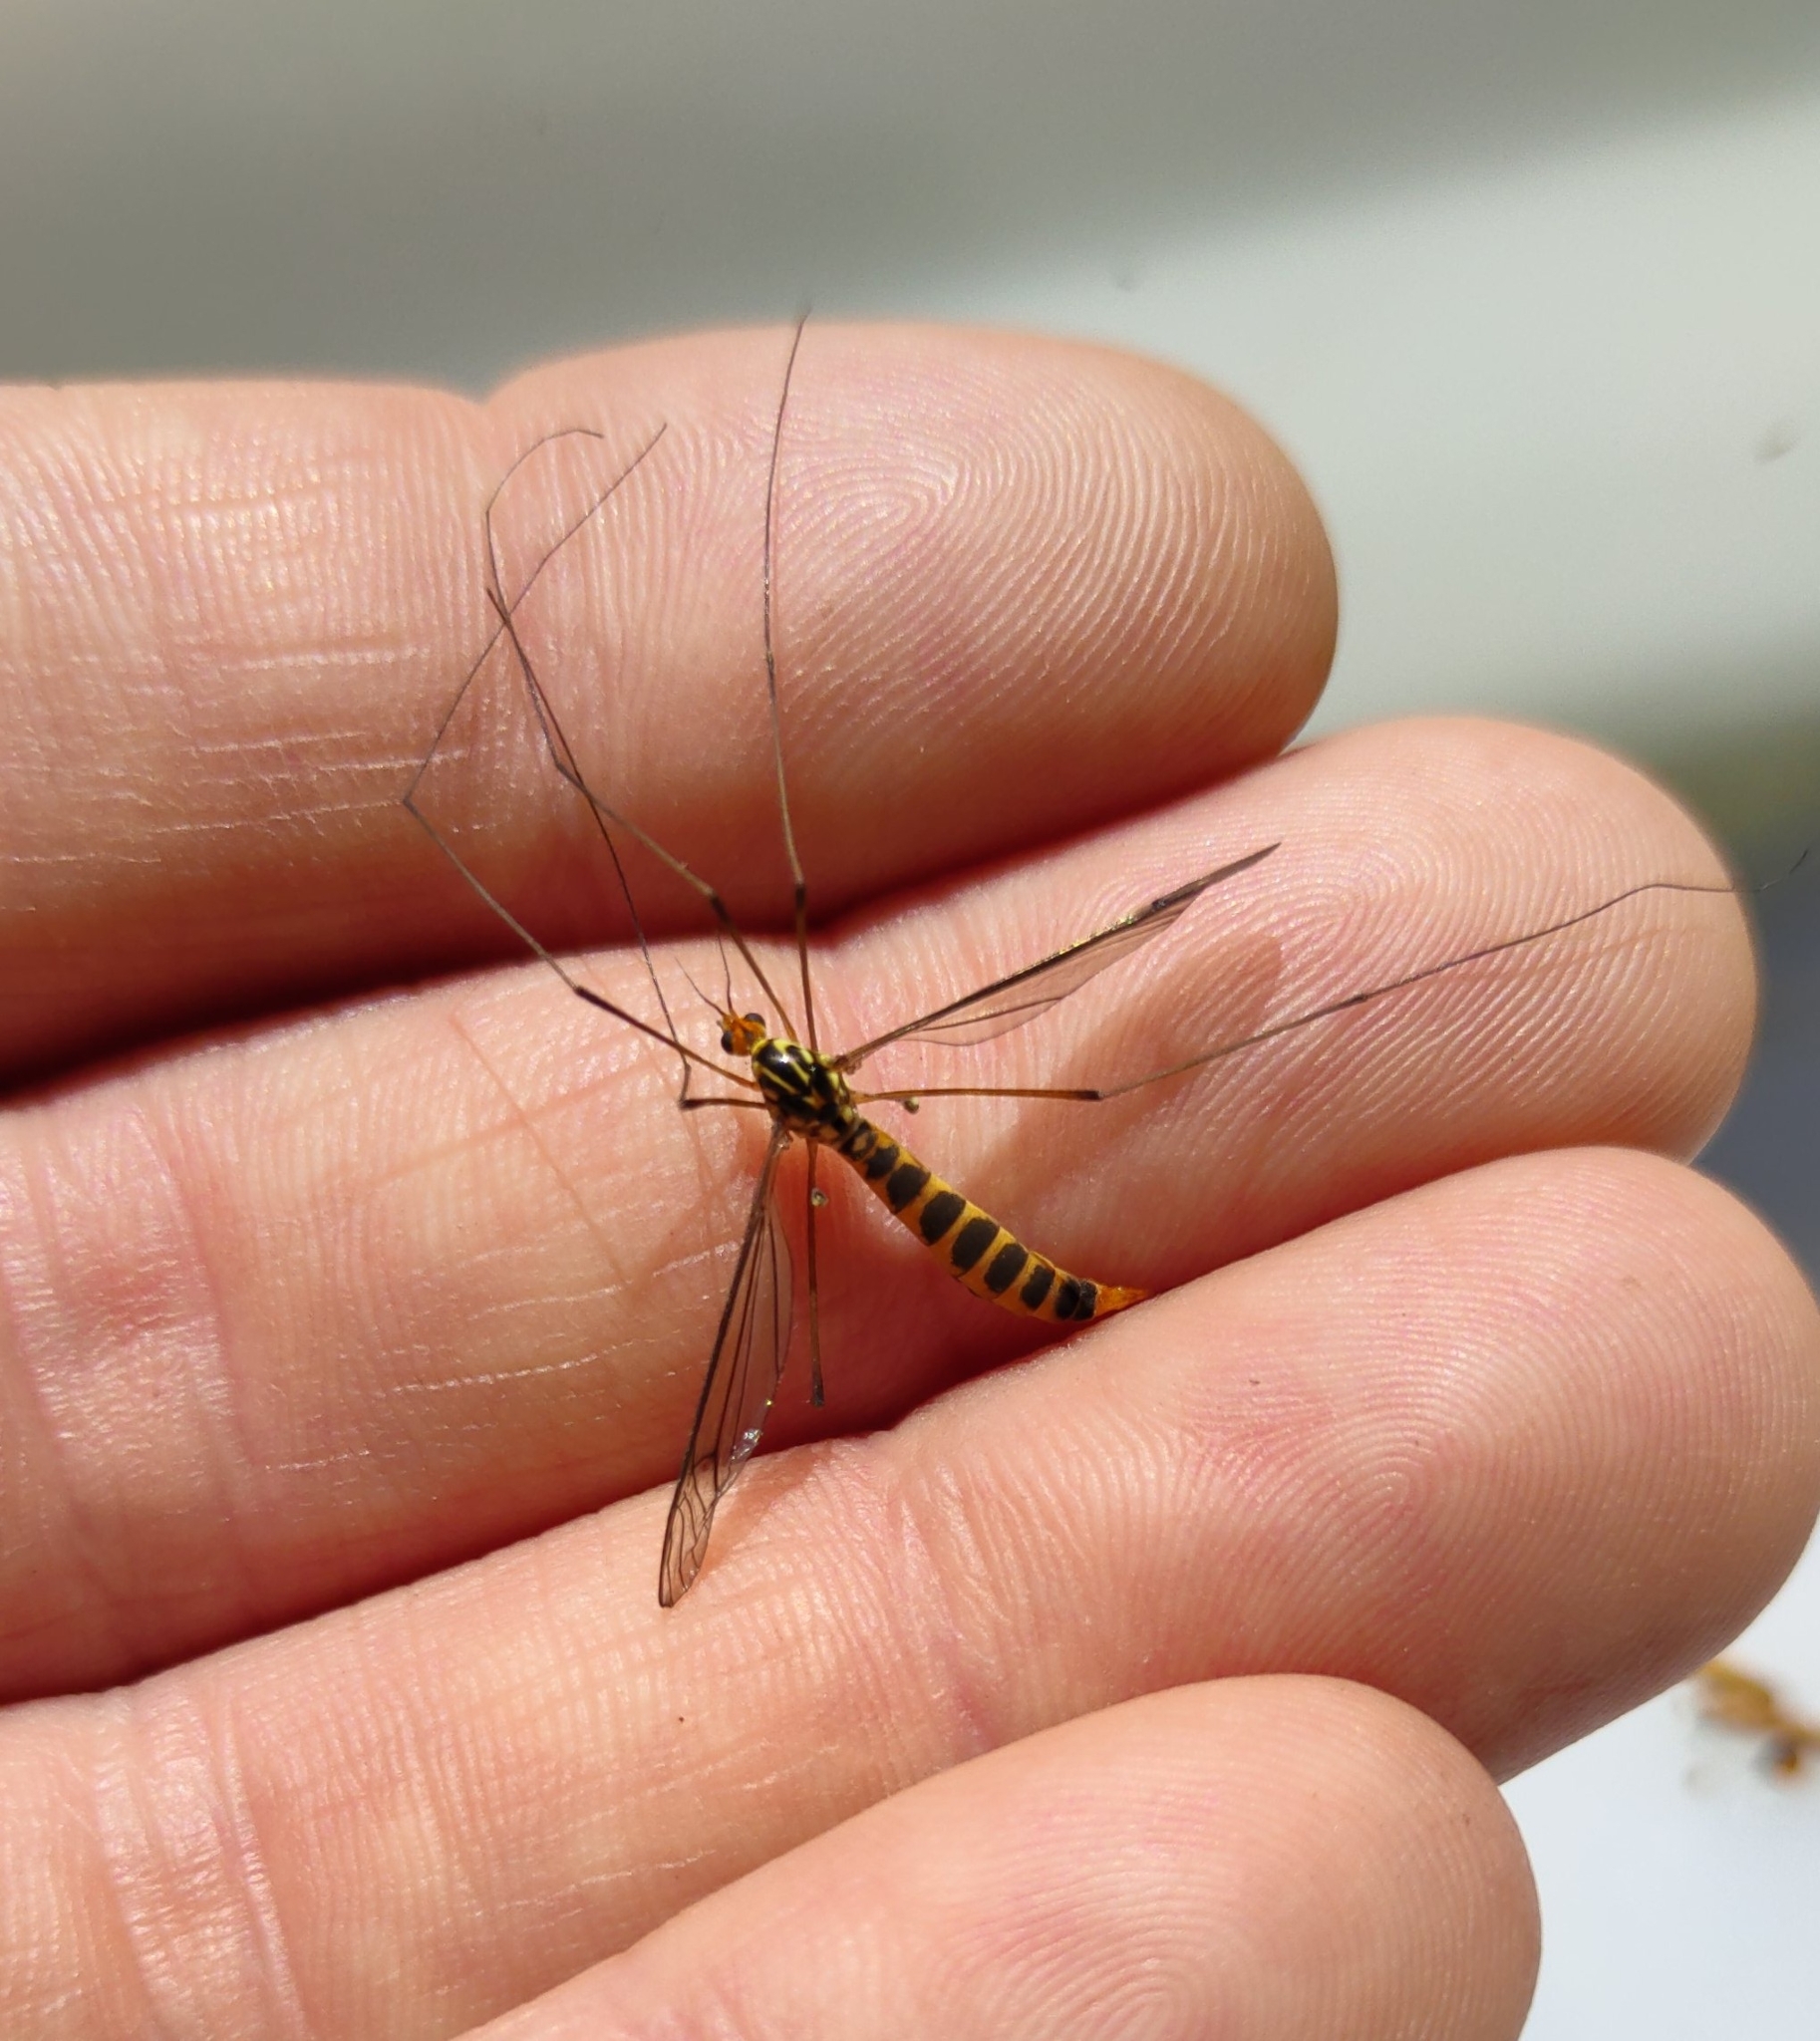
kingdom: Animalia
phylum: Arthropoda
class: Insecta
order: Diptera
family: Tipulidae
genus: Nephrotoma
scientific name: Nephrotoma flavipalpis
